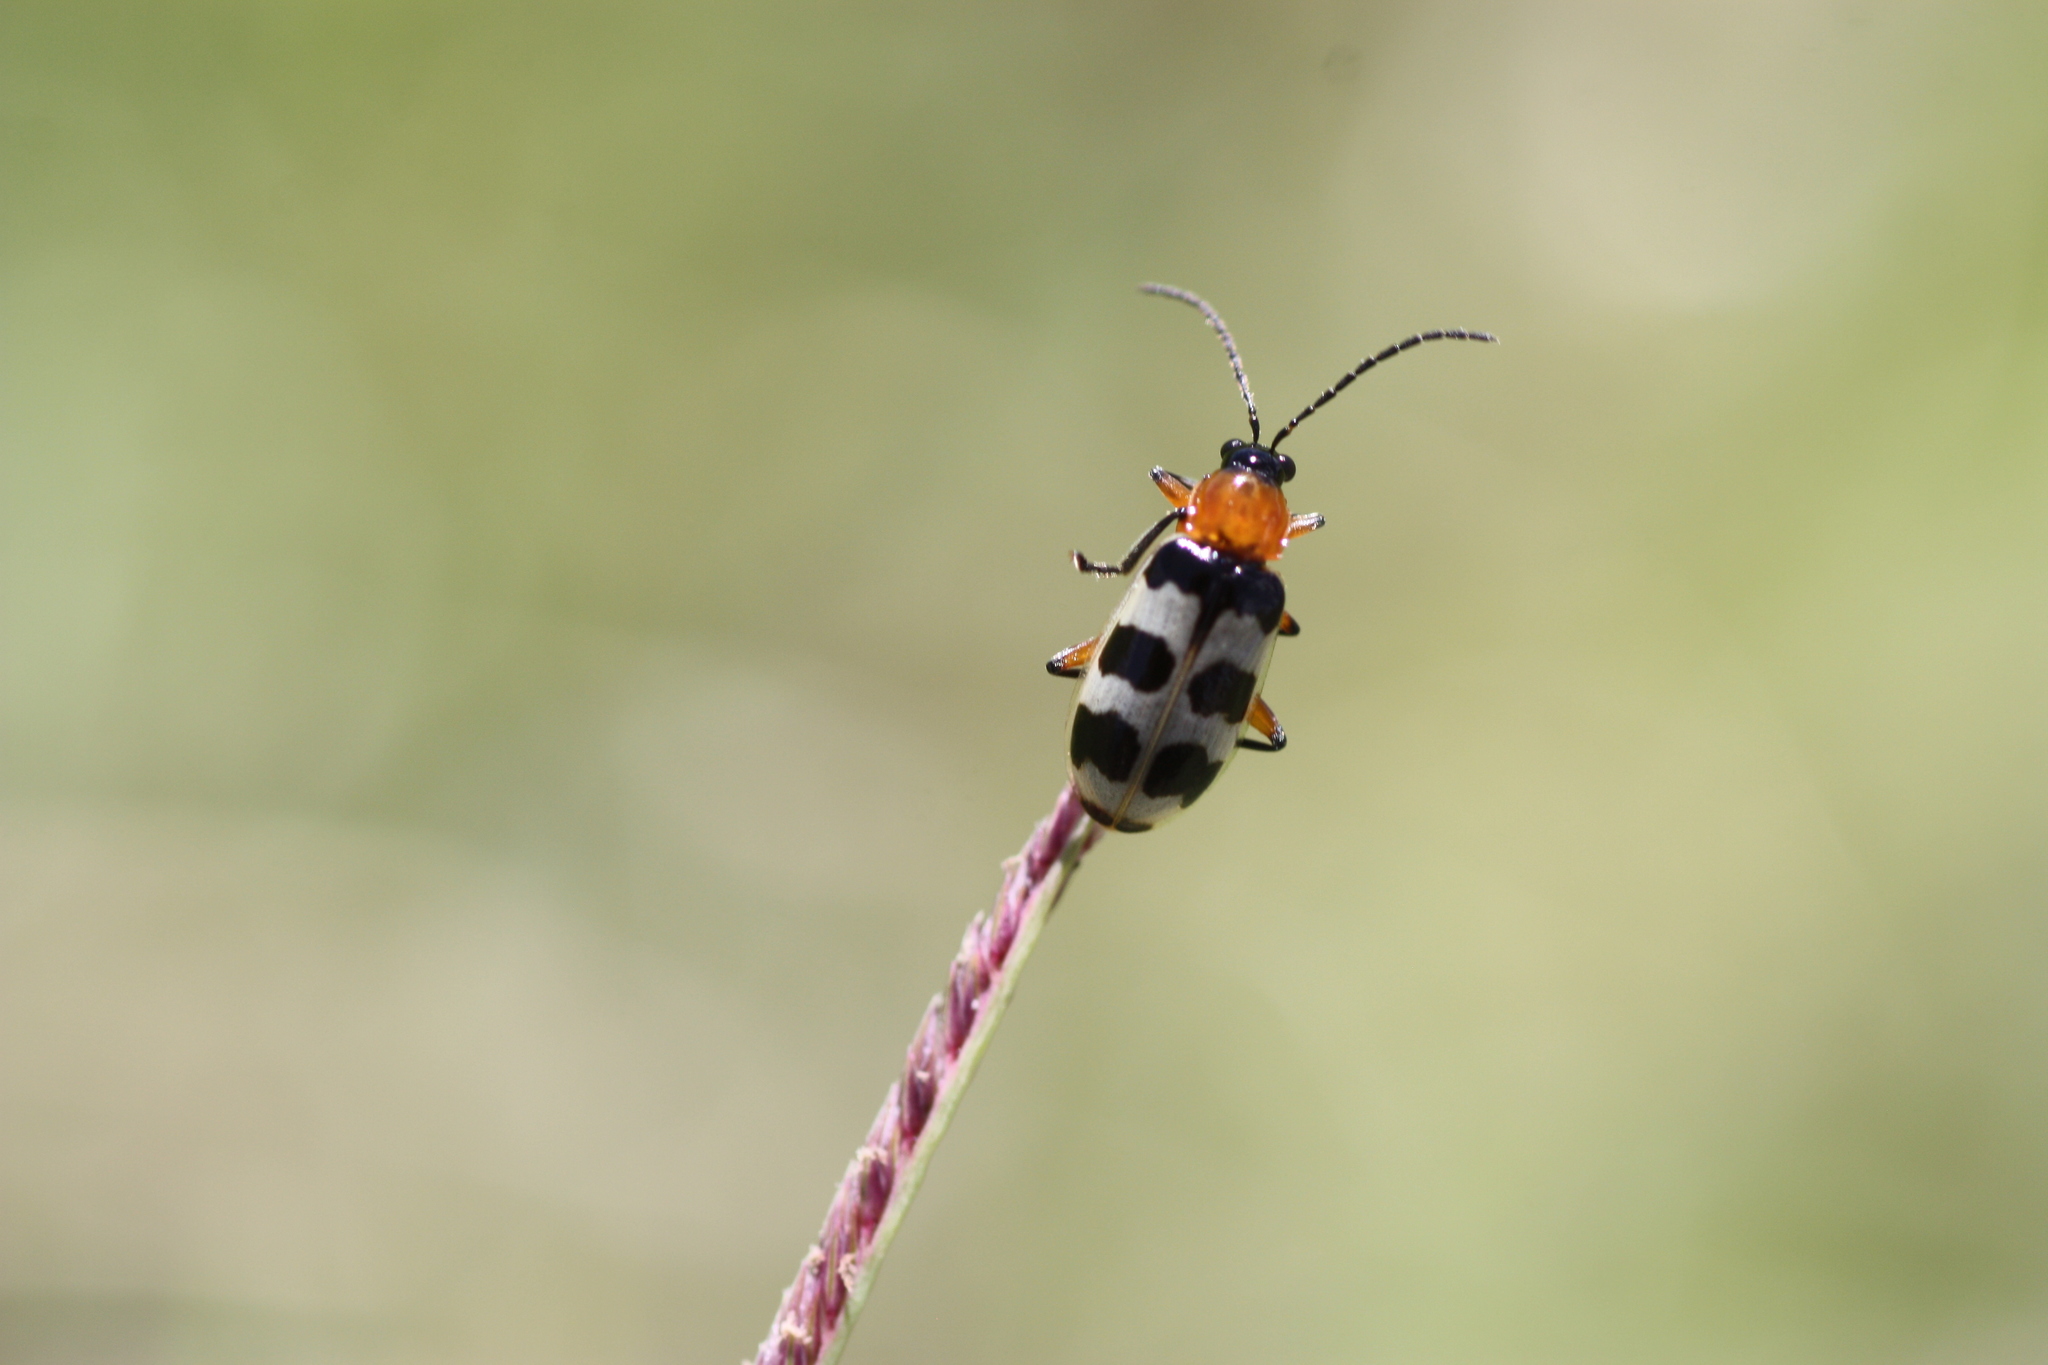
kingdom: Animalia
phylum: Arthropoda
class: Insecta
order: Coleoptera
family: Chrysomelidae
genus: Paranapiacaba
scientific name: Paranapiacaba tricincta
